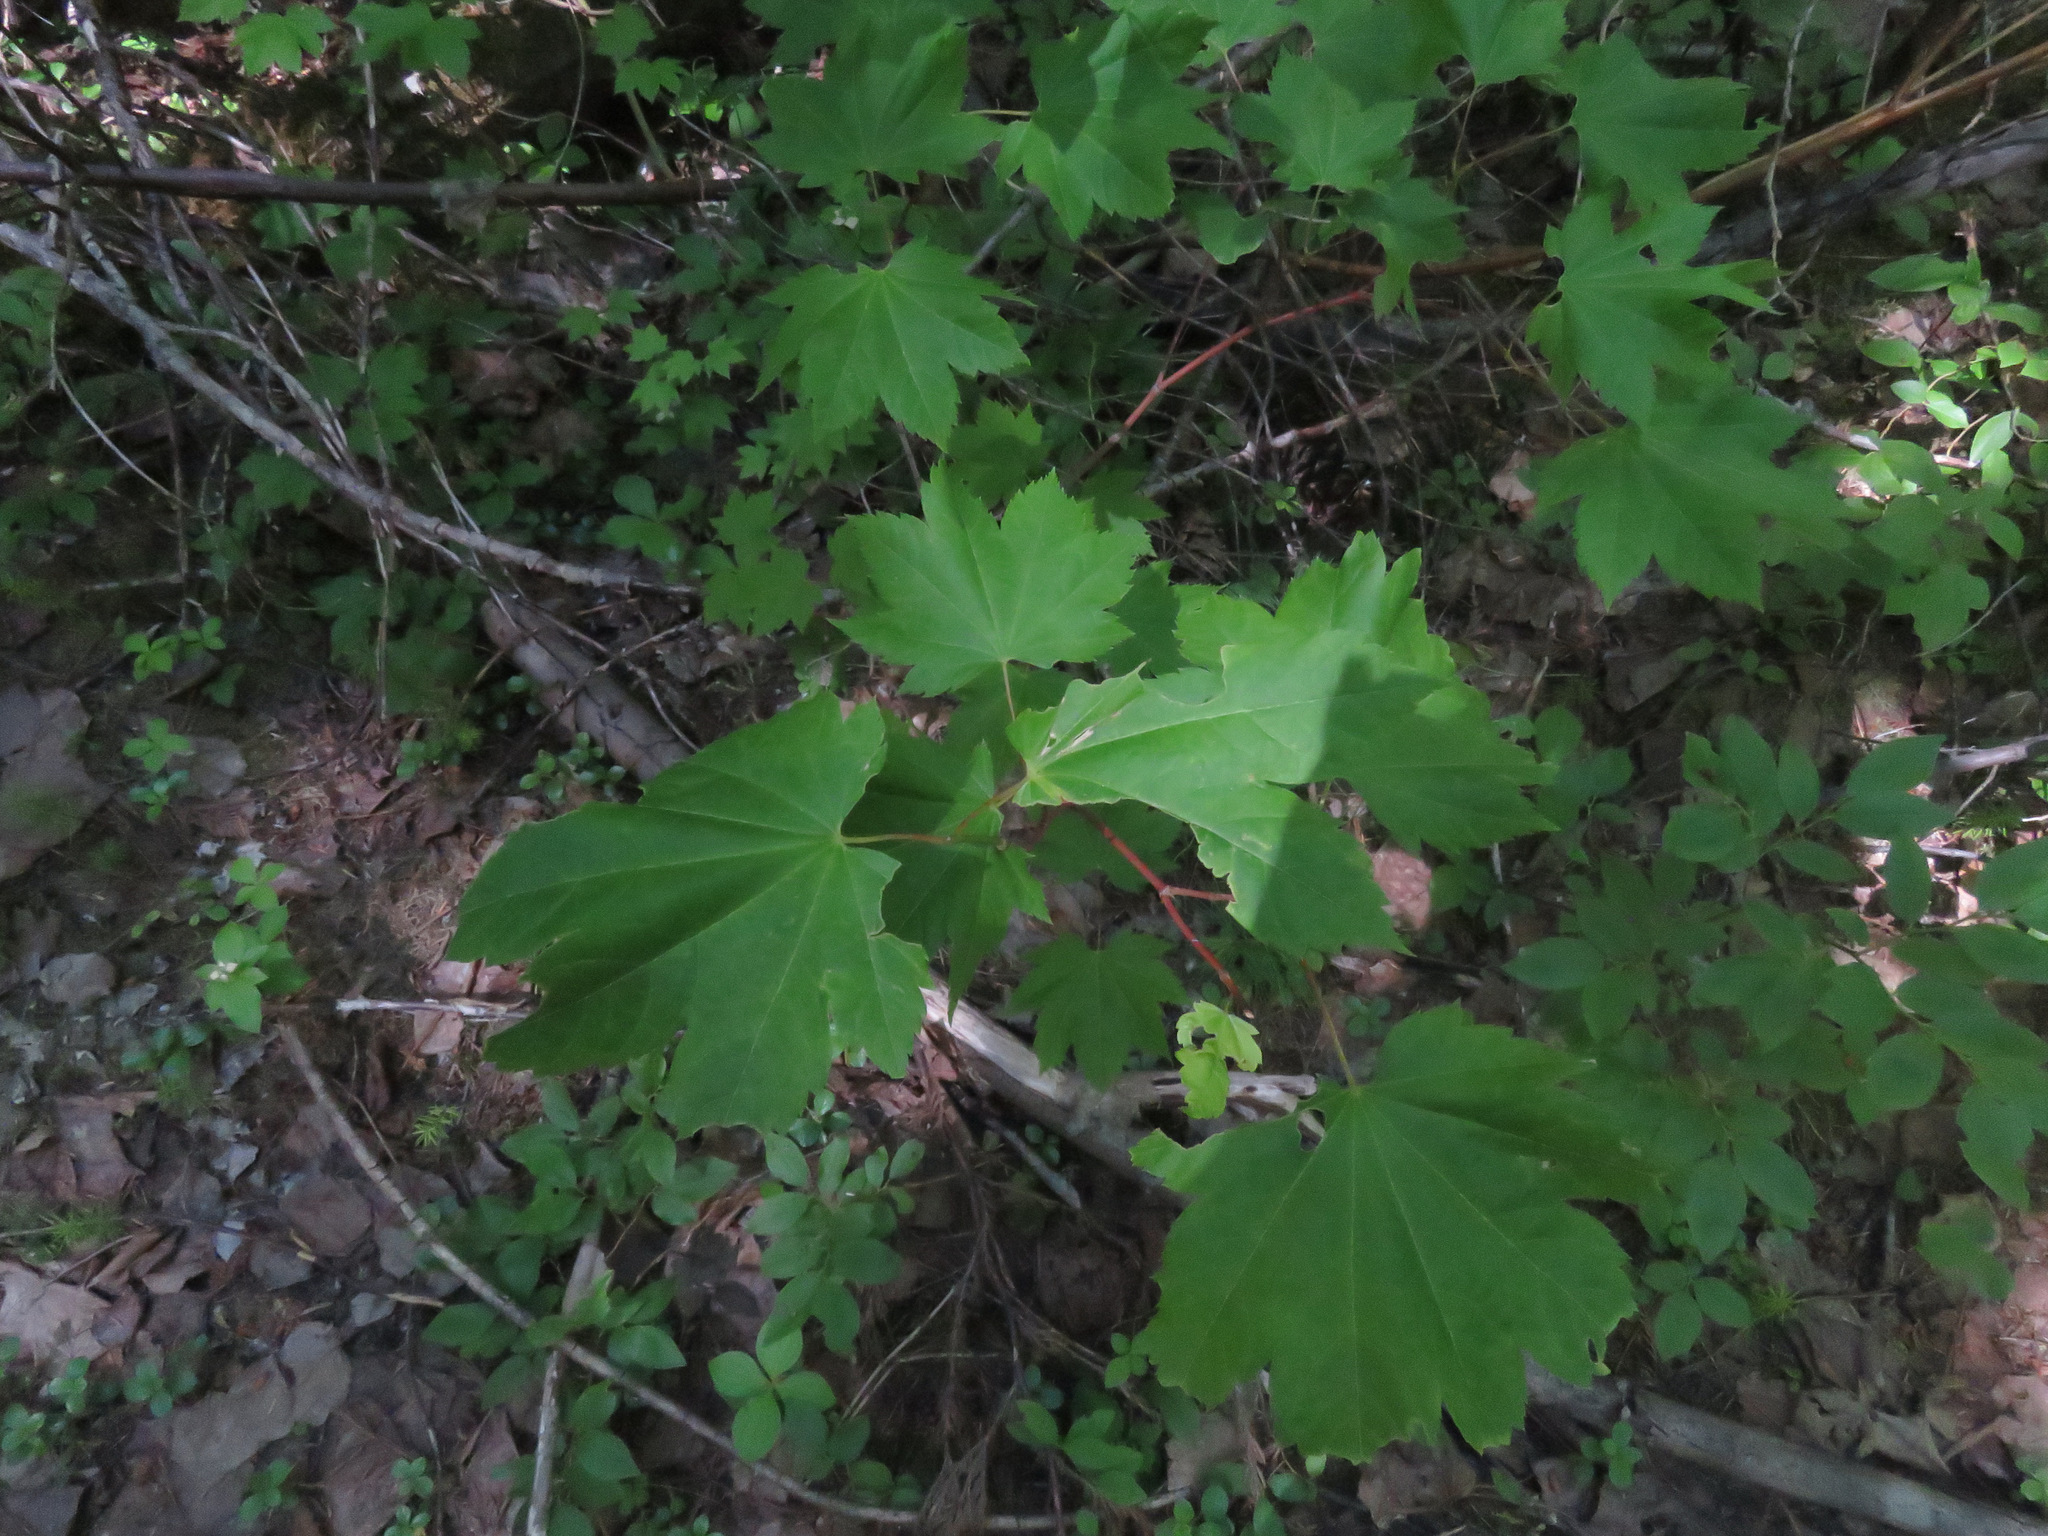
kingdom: Plantae
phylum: Tracheophyta
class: Magnoliopsida
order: Sapindales
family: Sapindaceae
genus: Acer
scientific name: Acer circinatum
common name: Vine maple
